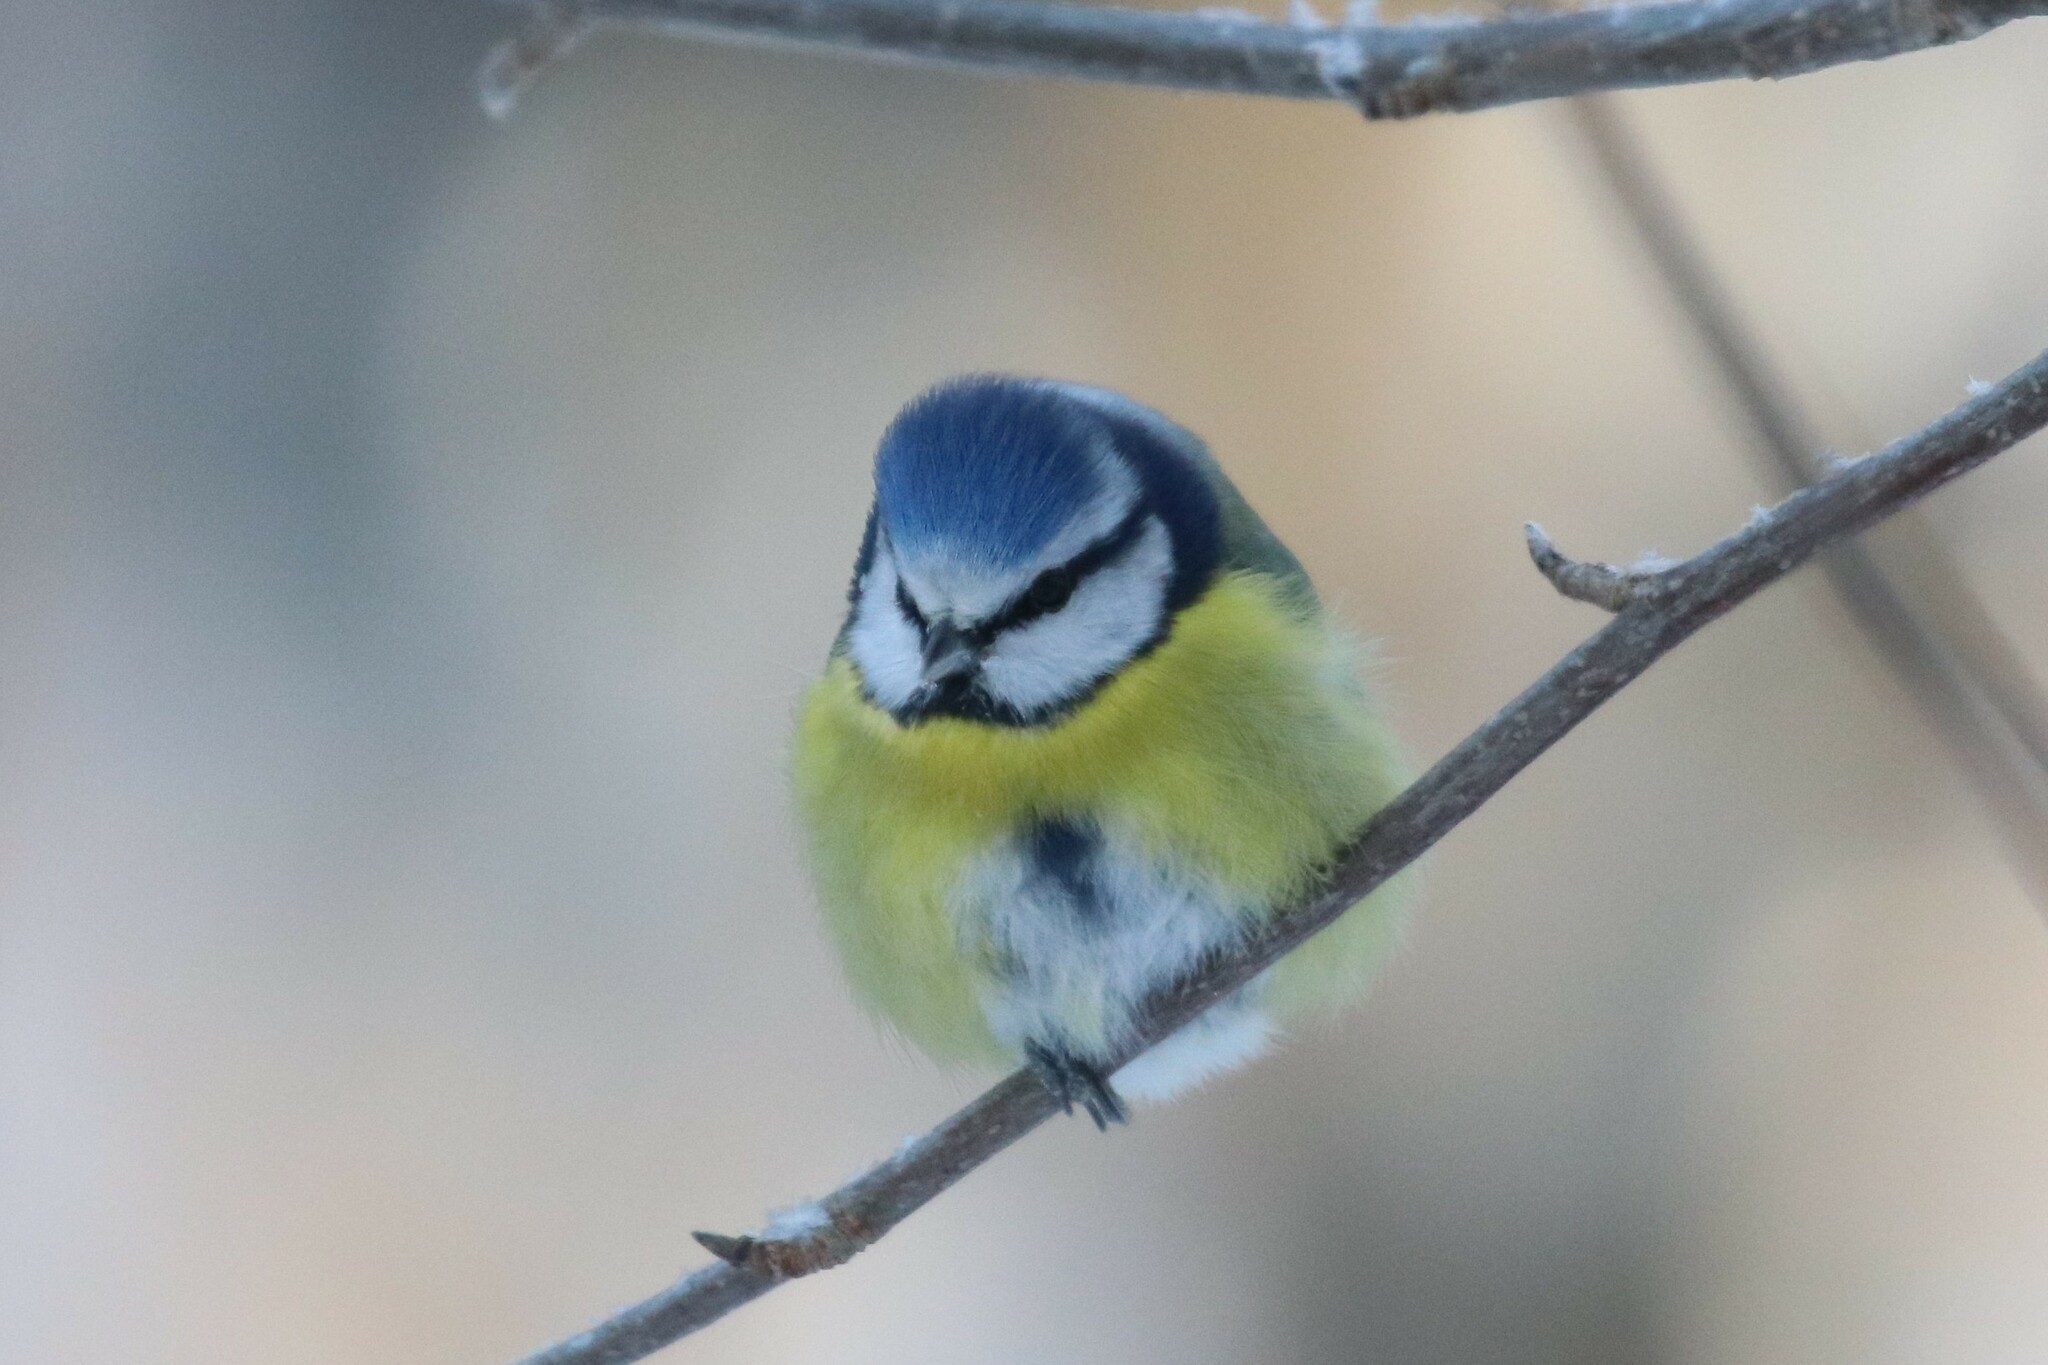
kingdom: Animalia
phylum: Chordata
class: Aves
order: Passeriformes
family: Paridae
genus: Cyanistes
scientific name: Cyanistes caeruleus
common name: Eurasian blue tit
